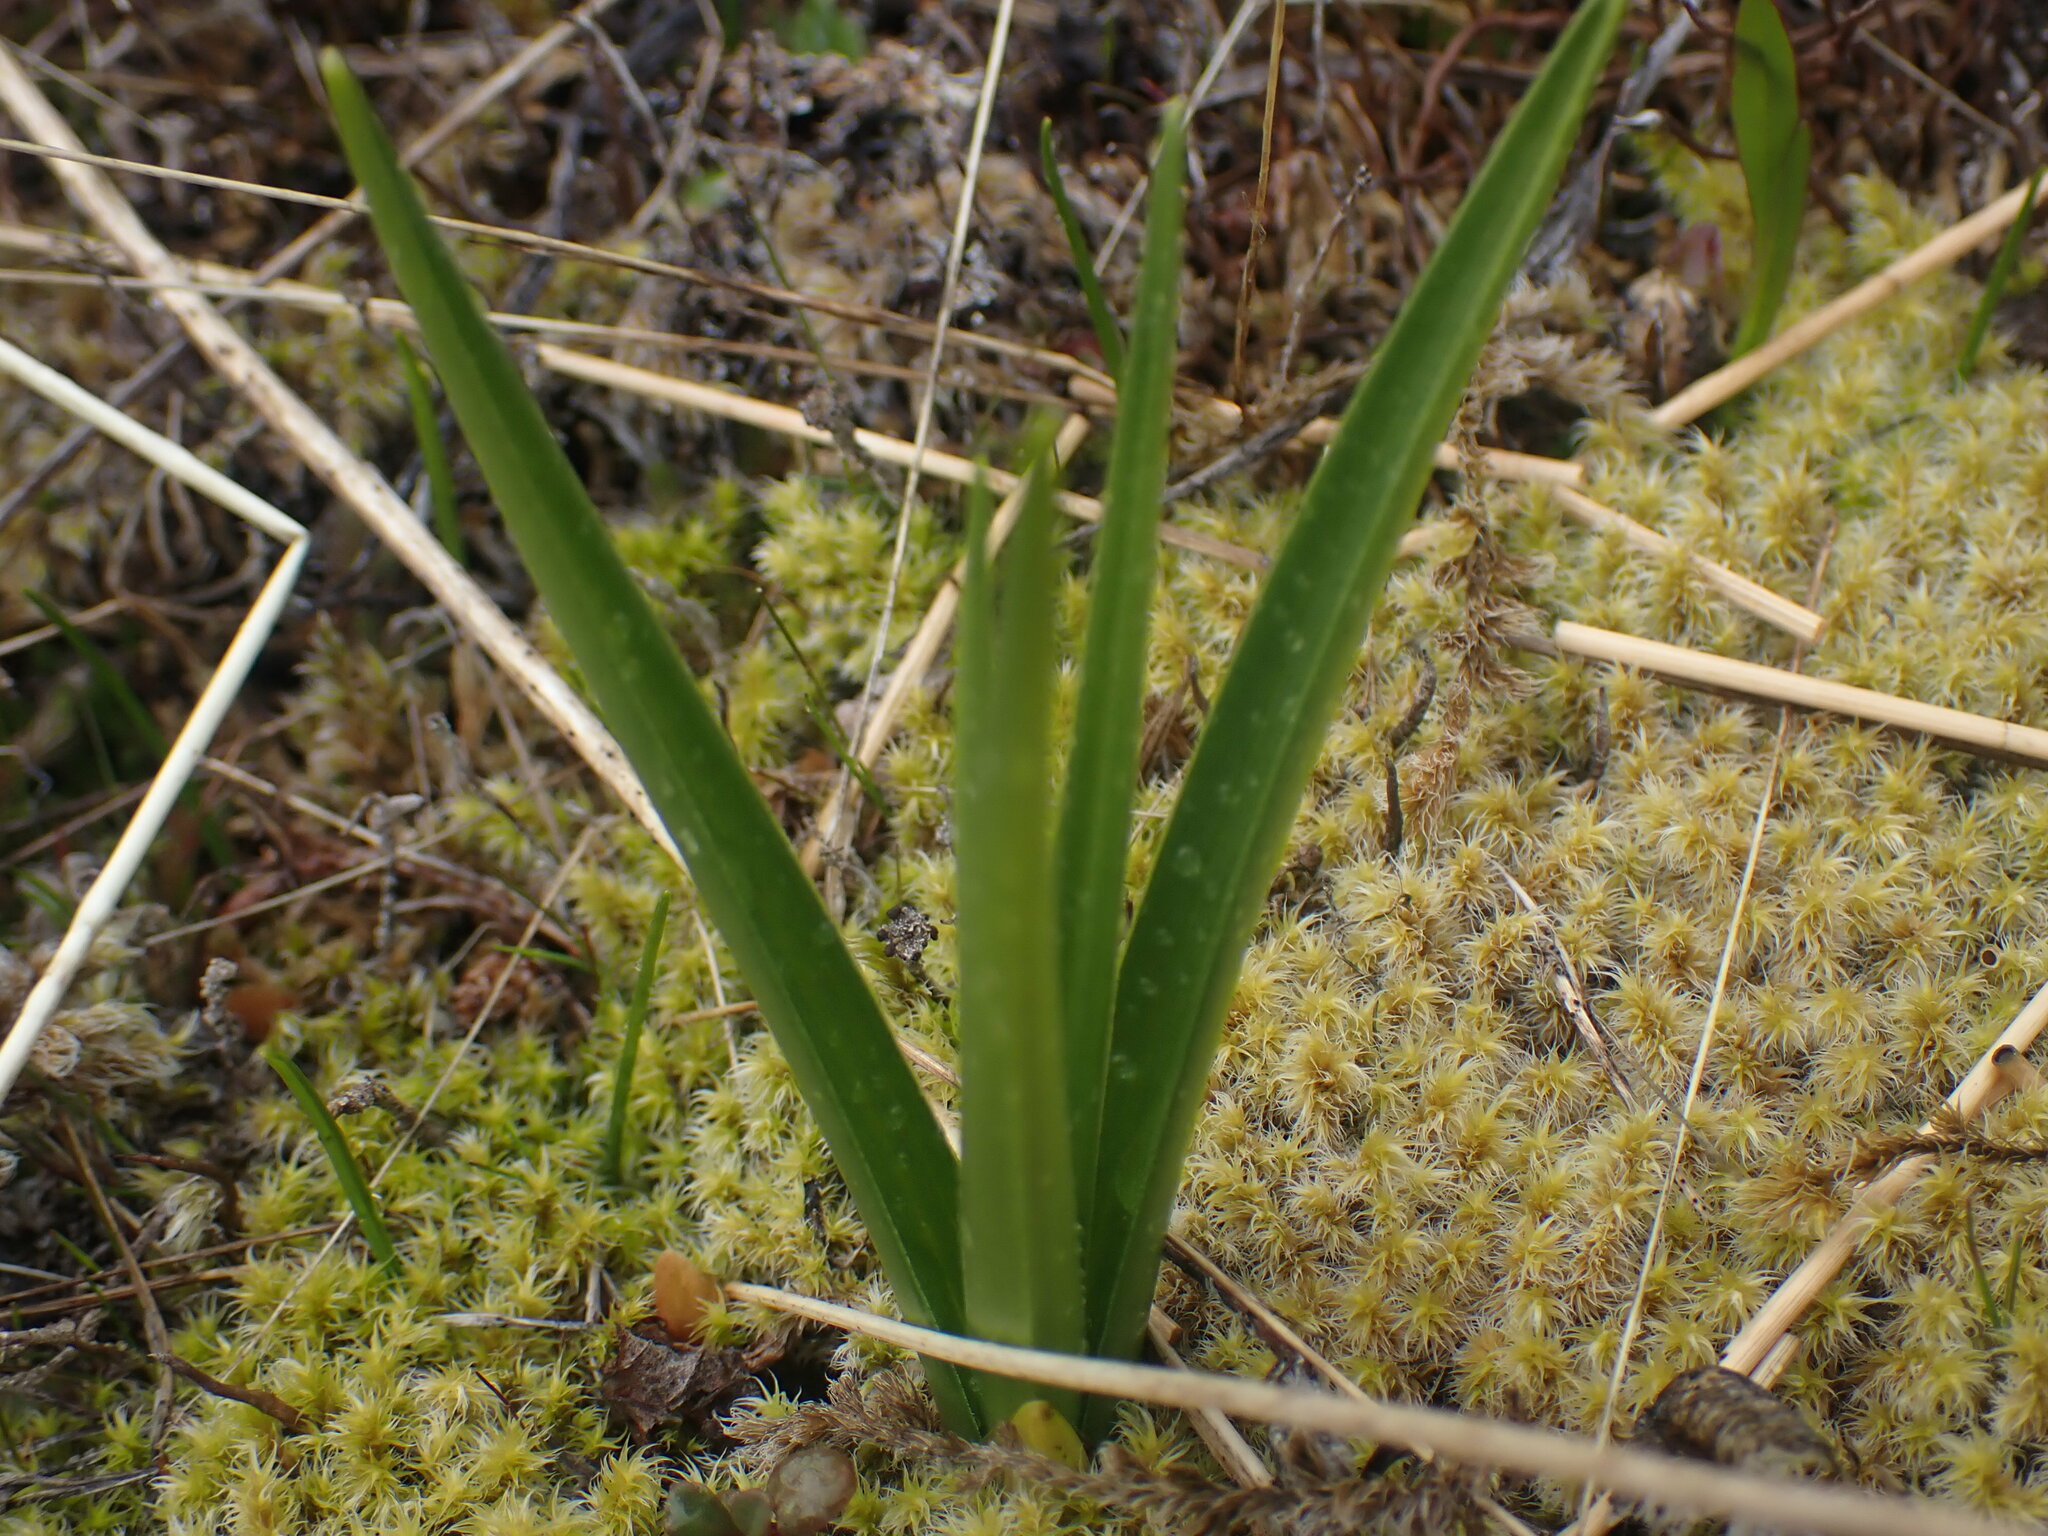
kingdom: Plantae
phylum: Tracheophyta
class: Liliopsida
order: Liliales
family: Melanthiaceae
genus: Toxicoscordion
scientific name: Toxicoscordion venenosum
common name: Meadow death camas
